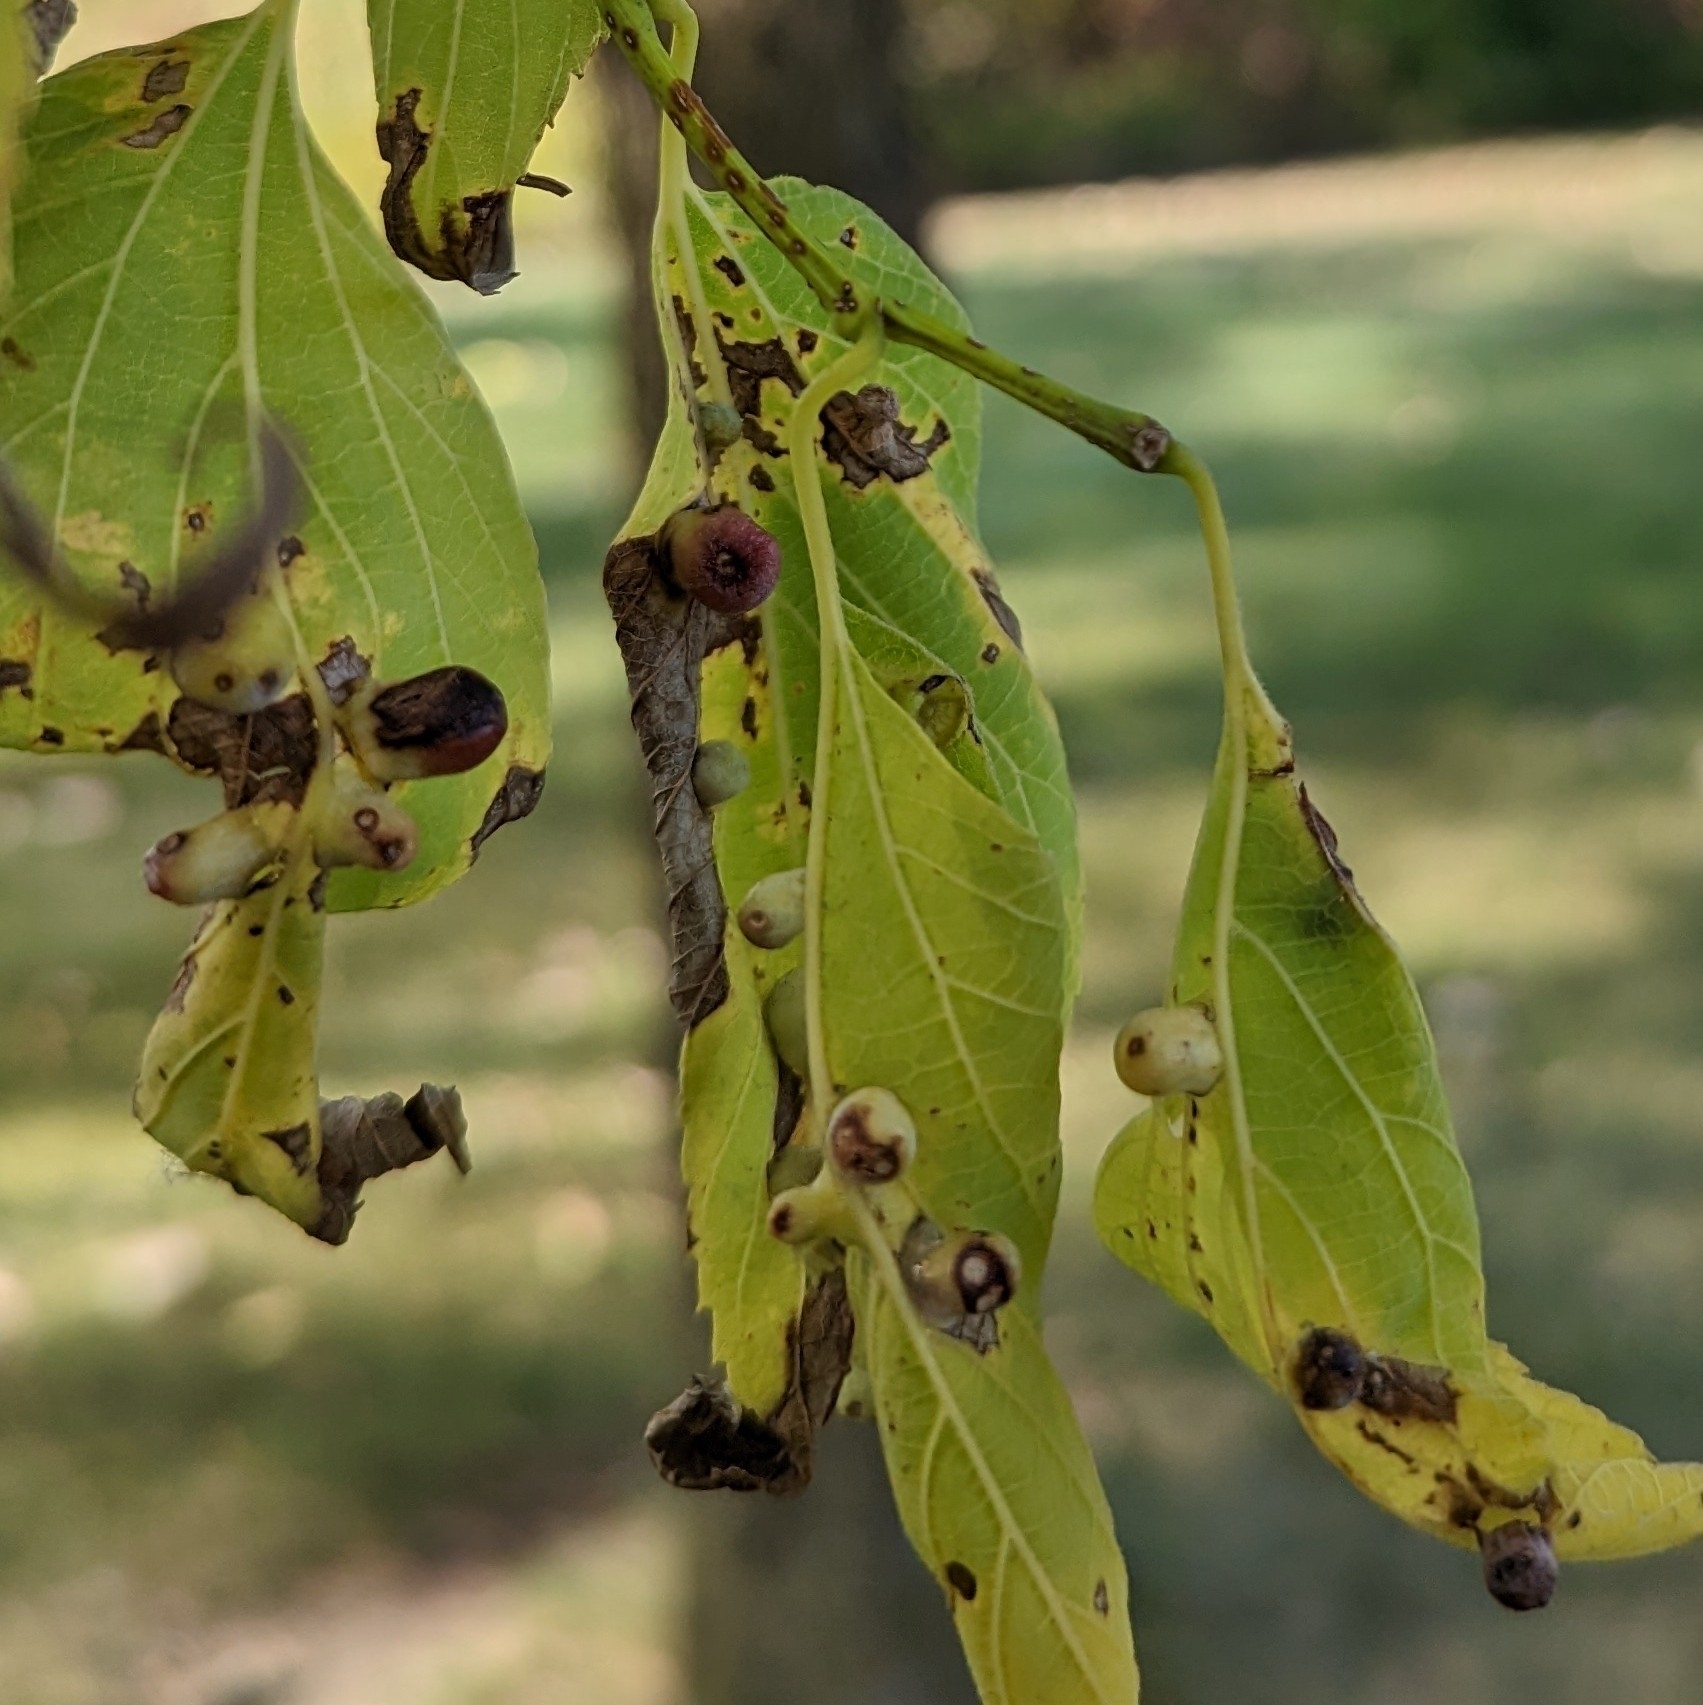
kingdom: Animalia
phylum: Arthropoda
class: Insecta
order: Hemiptera
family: Aphalaridae
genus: Pachypsylla
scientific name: Pachypsylla celtidismamma
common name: Hackberry nipplegall psyllid
